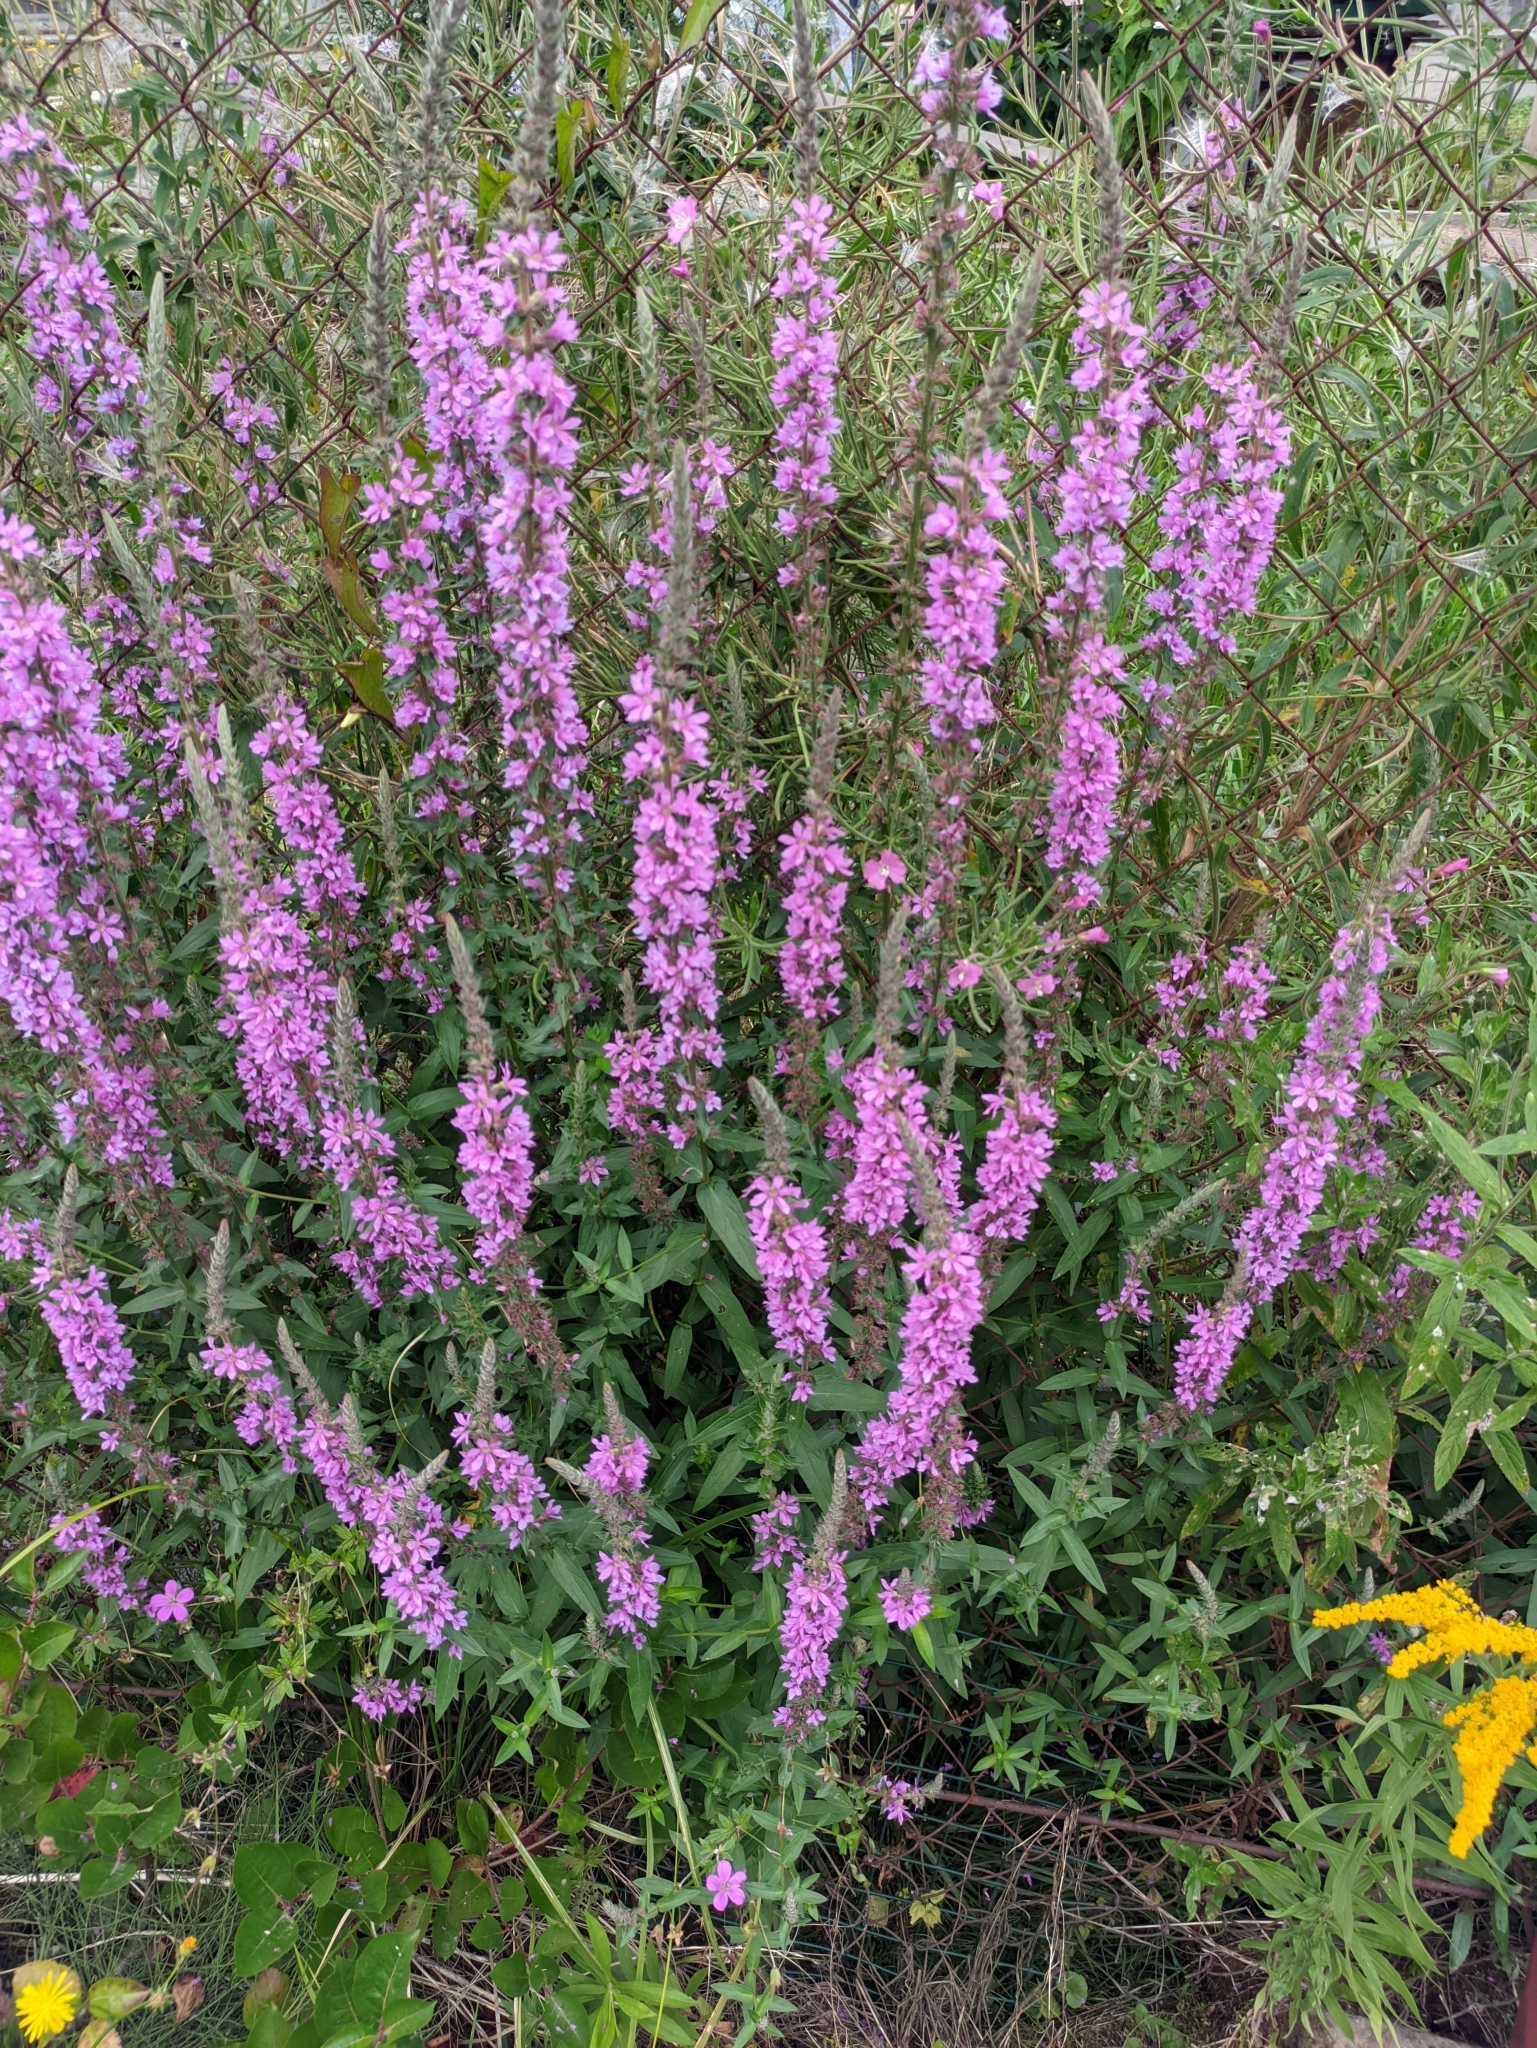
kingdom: Plantae
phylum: Tracheophyta
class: Magnoliopsida
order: Myrtales
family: Lythraceae
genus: Lythrum
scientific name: Lythrum salicaria
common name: Purple loosestrife
